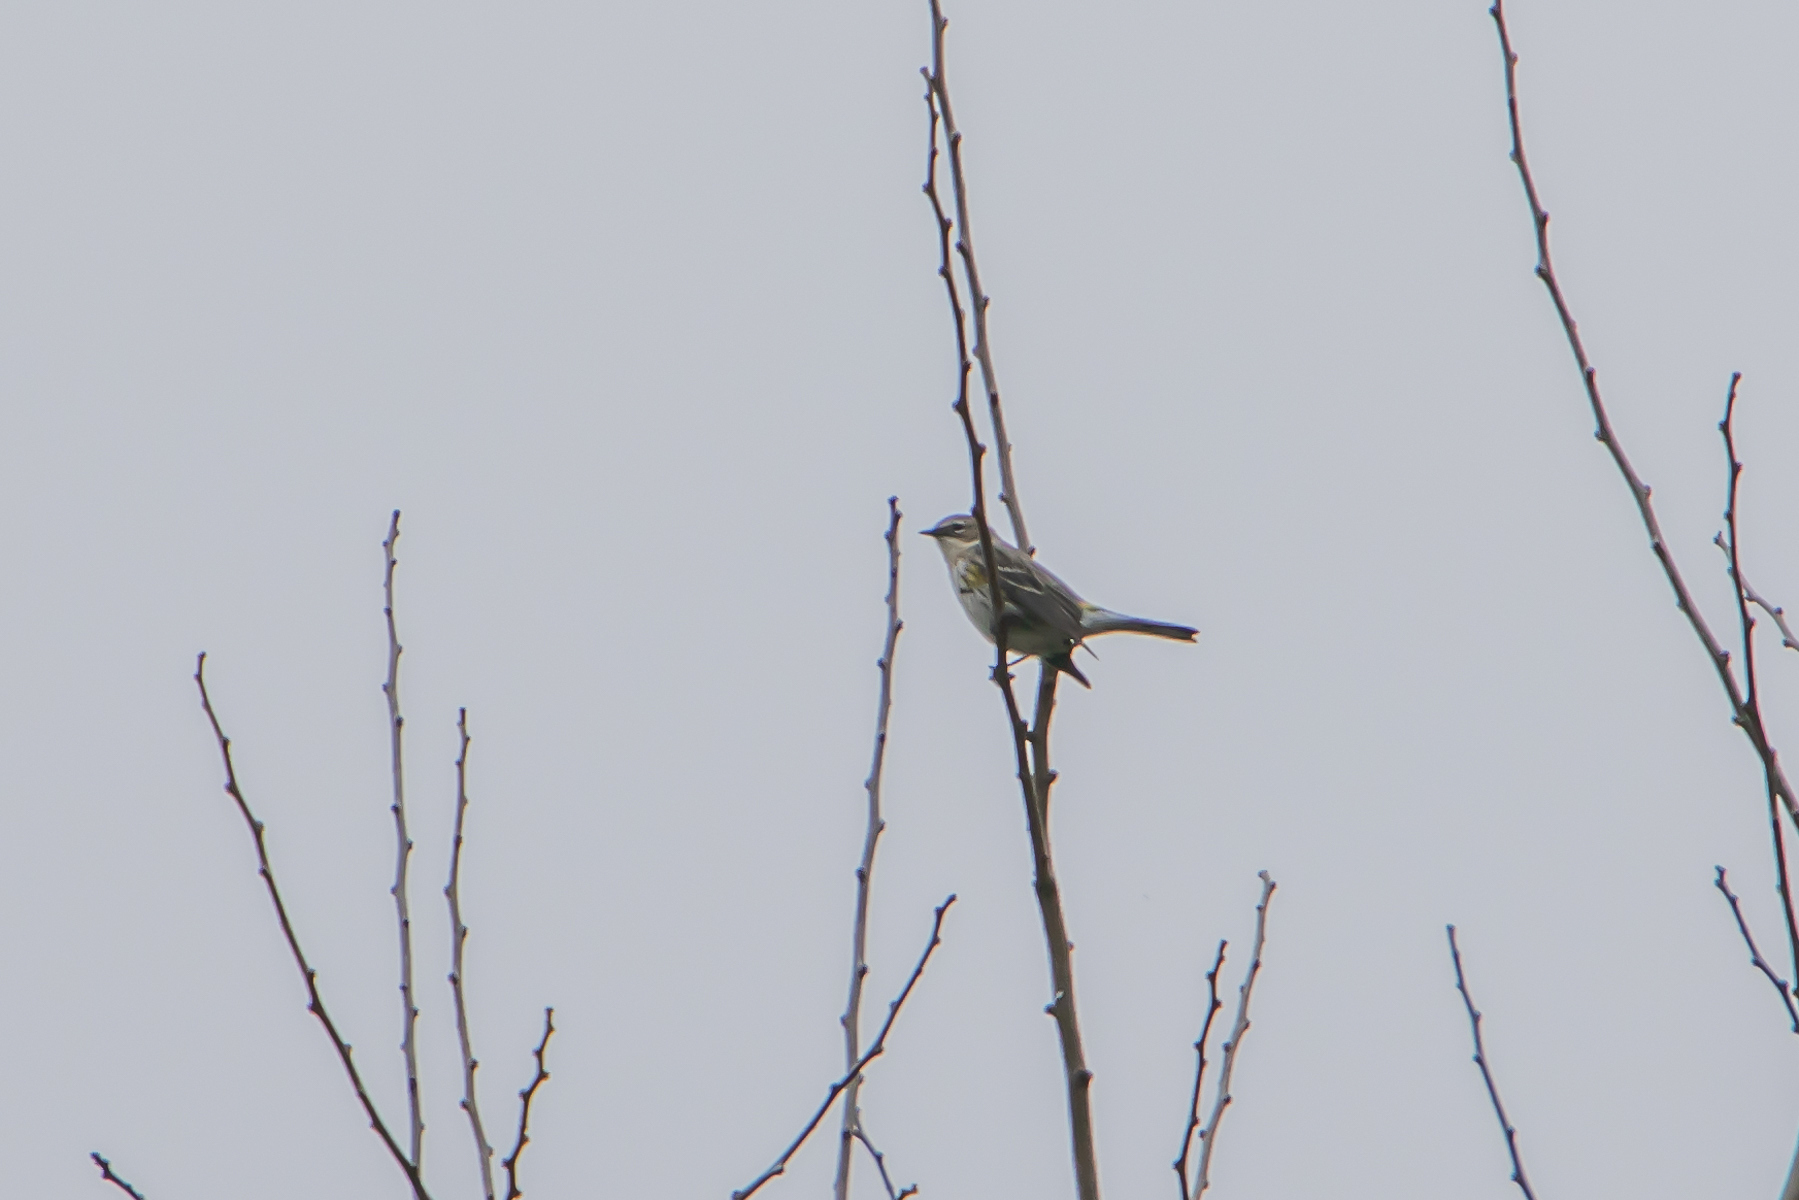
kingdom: Animalia
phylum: Chordata
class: Aves
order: Passeriformes
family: Parulidae
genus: Setophaga
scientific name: Setophaga coronata
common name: Myrtle warbler
